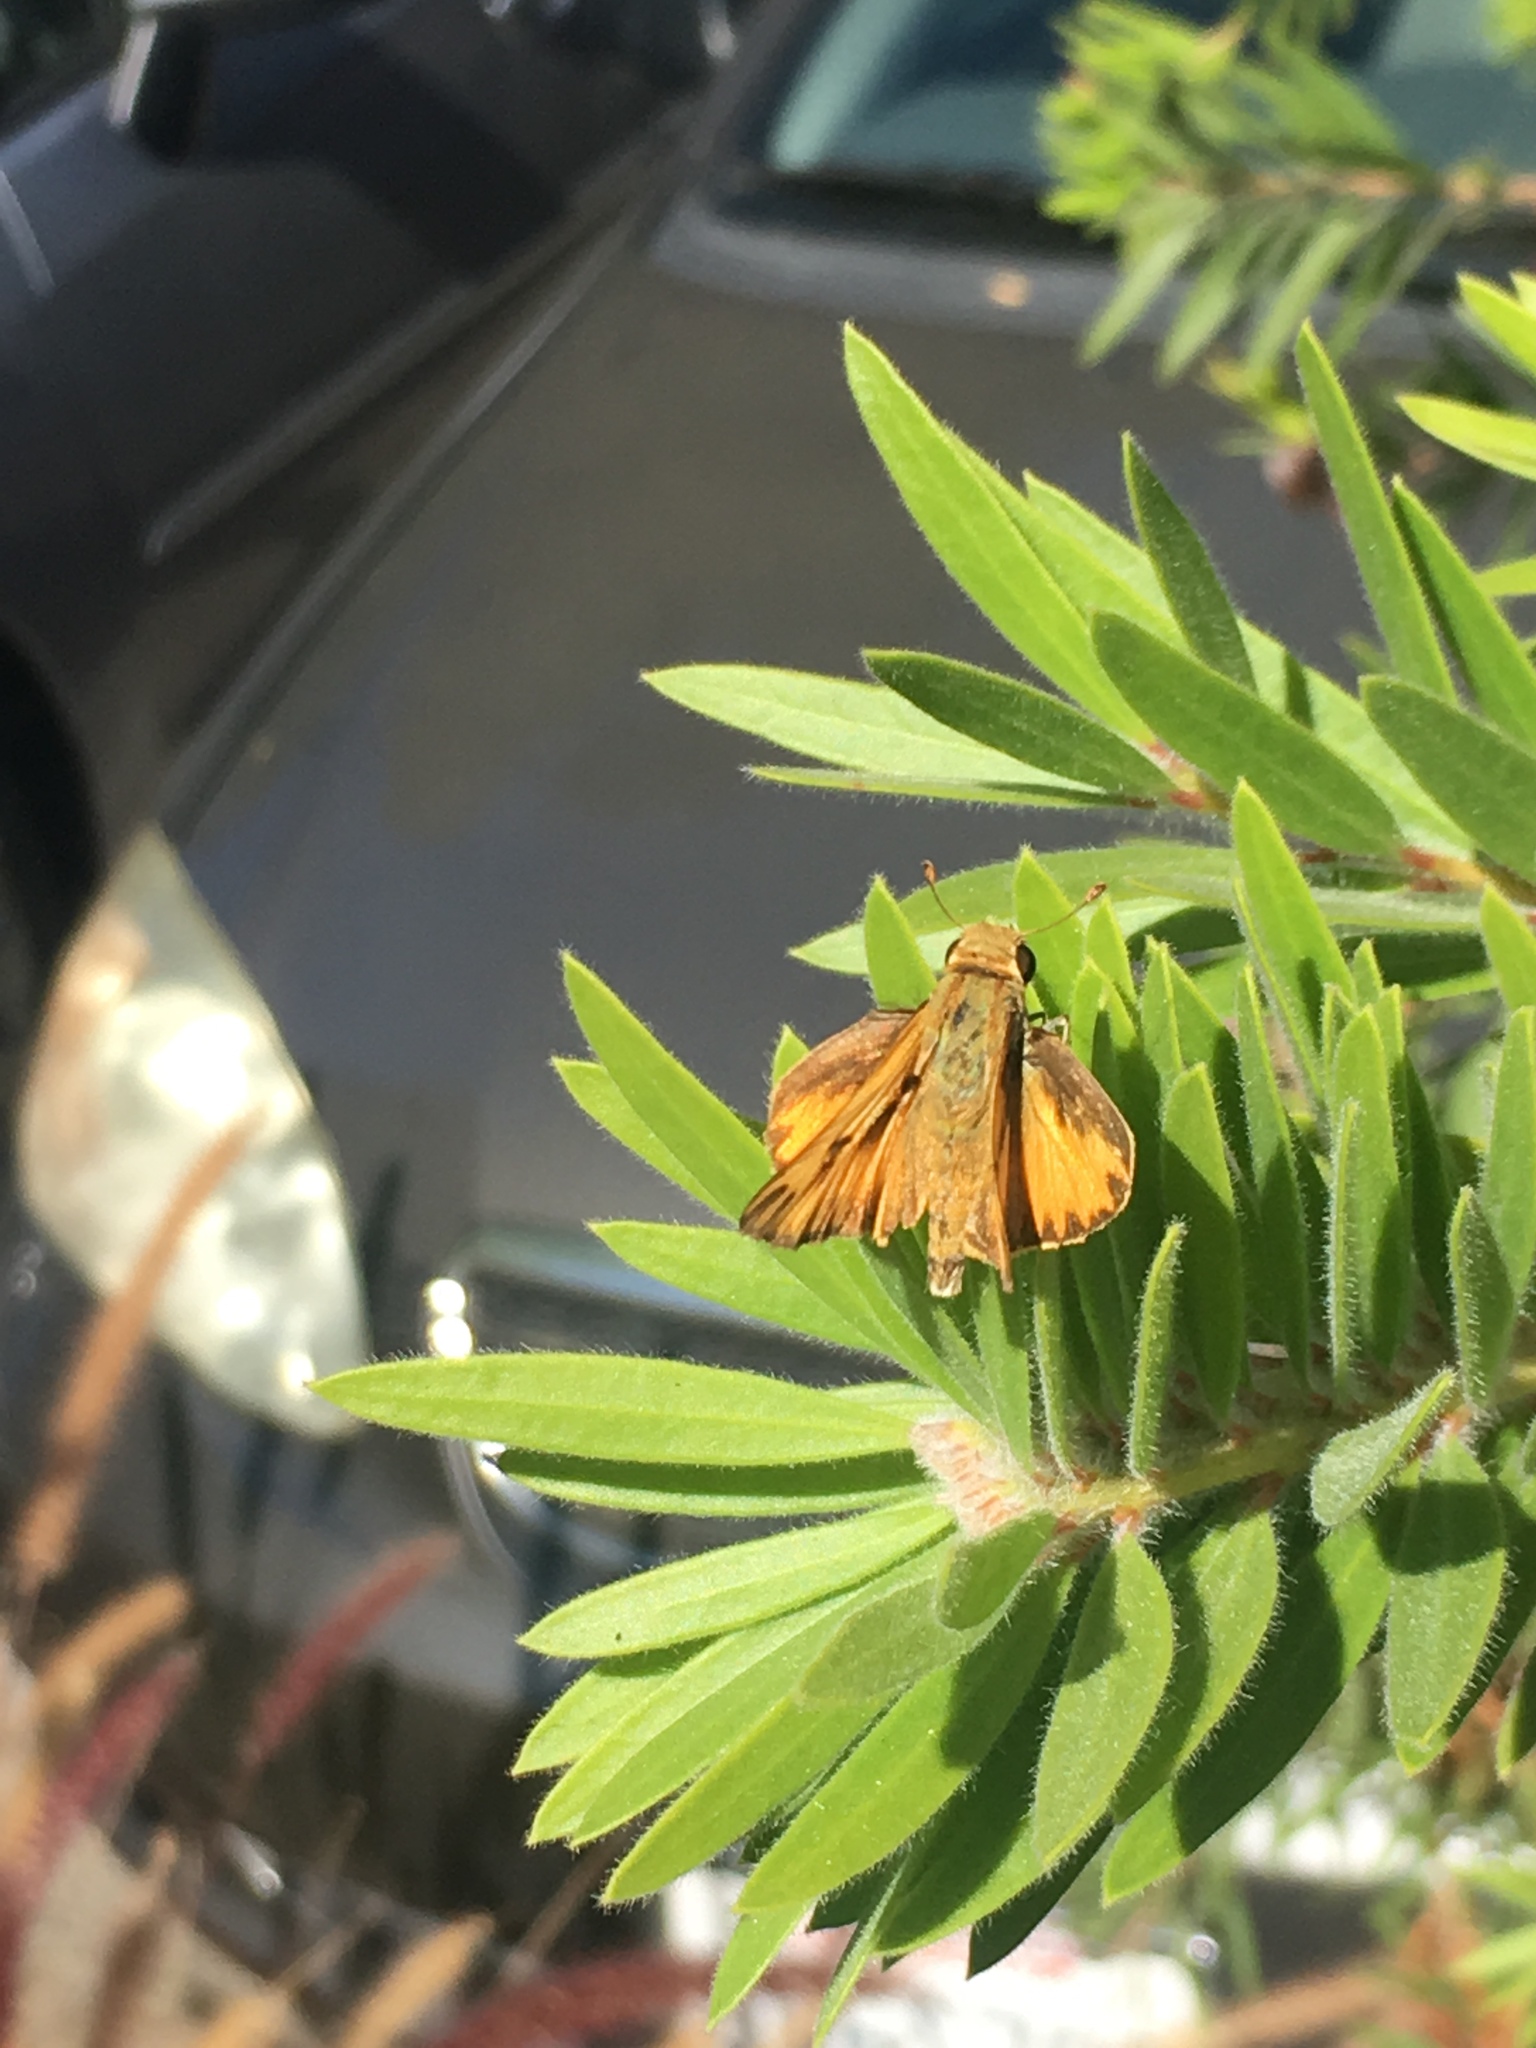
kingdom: Animalia
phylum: Arthropoda
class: Insecta
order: Lepidoptera
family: Hesperiidae
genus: Hylephila
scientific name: Hylephila phyleus
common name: Fiery skipper
